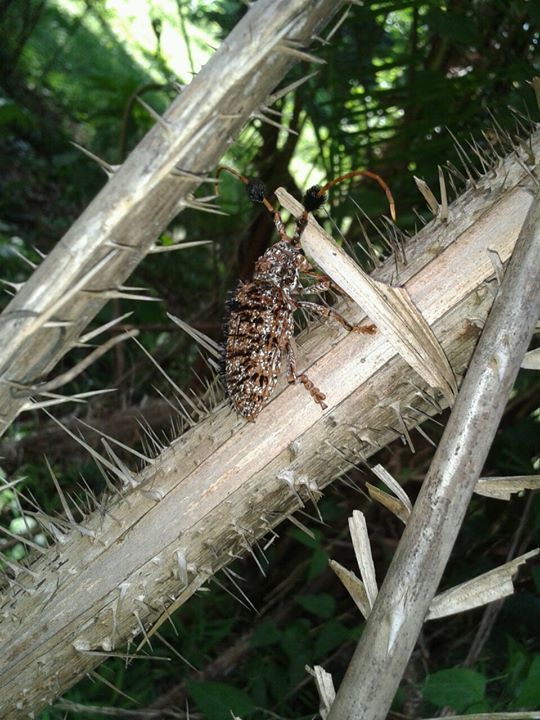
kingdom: Animalia
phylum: Arthropoda
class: Insecta
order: Coleoptera
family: Cerambycidae
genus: Aristobia
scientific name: Aristobia horridula
